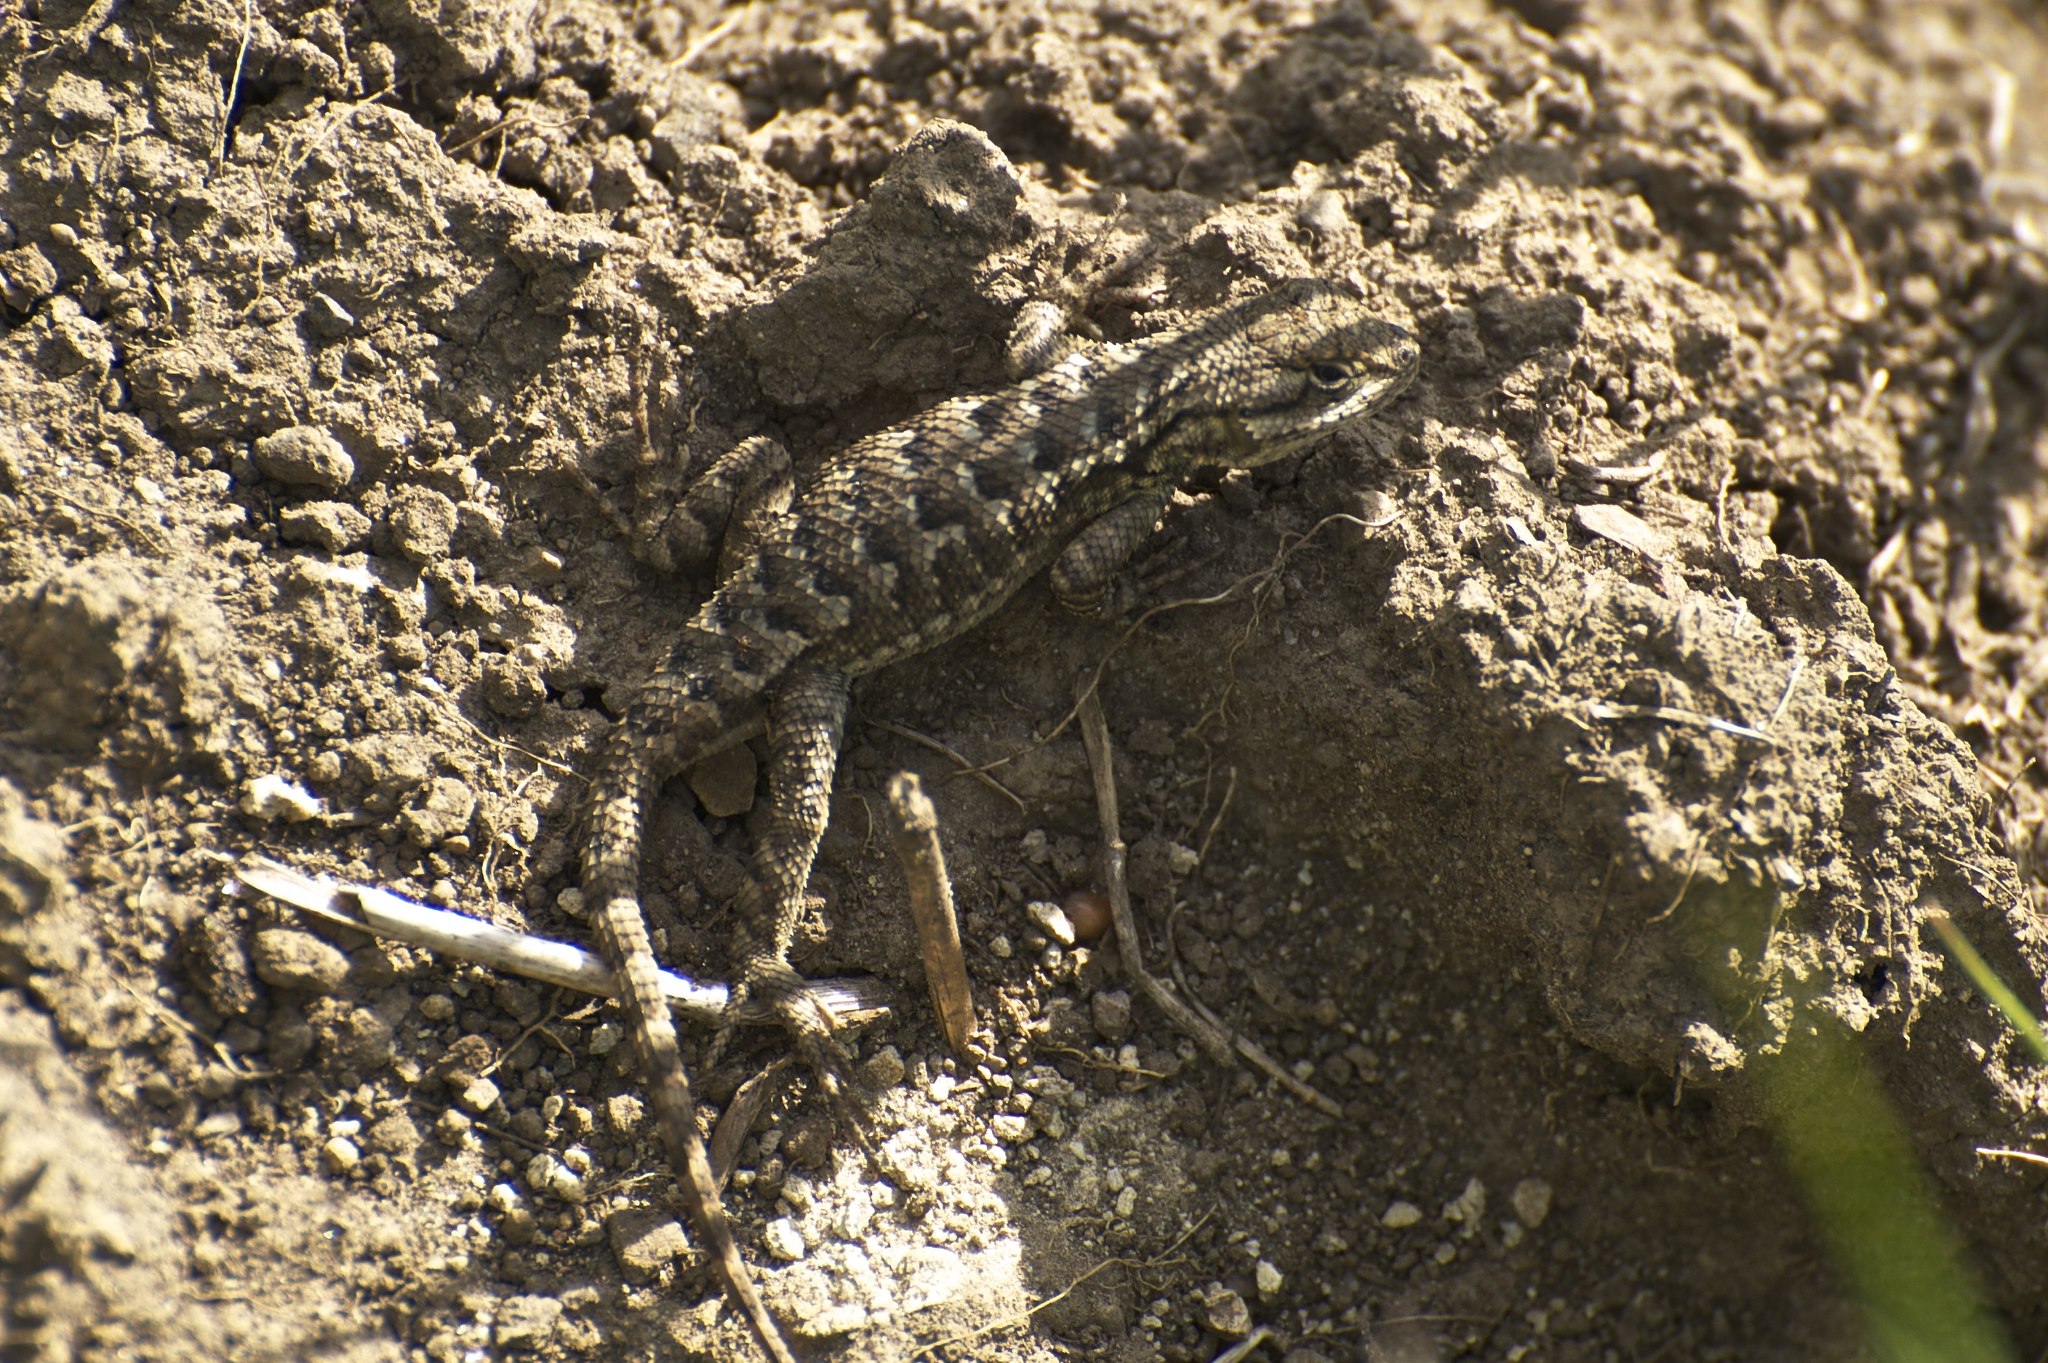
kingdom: Animalia
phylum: Chordata
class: Squamata
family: Phrynosomatidae
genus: Sceloporus
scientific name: Sceloporus occidentalis
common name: Western fence lizard
